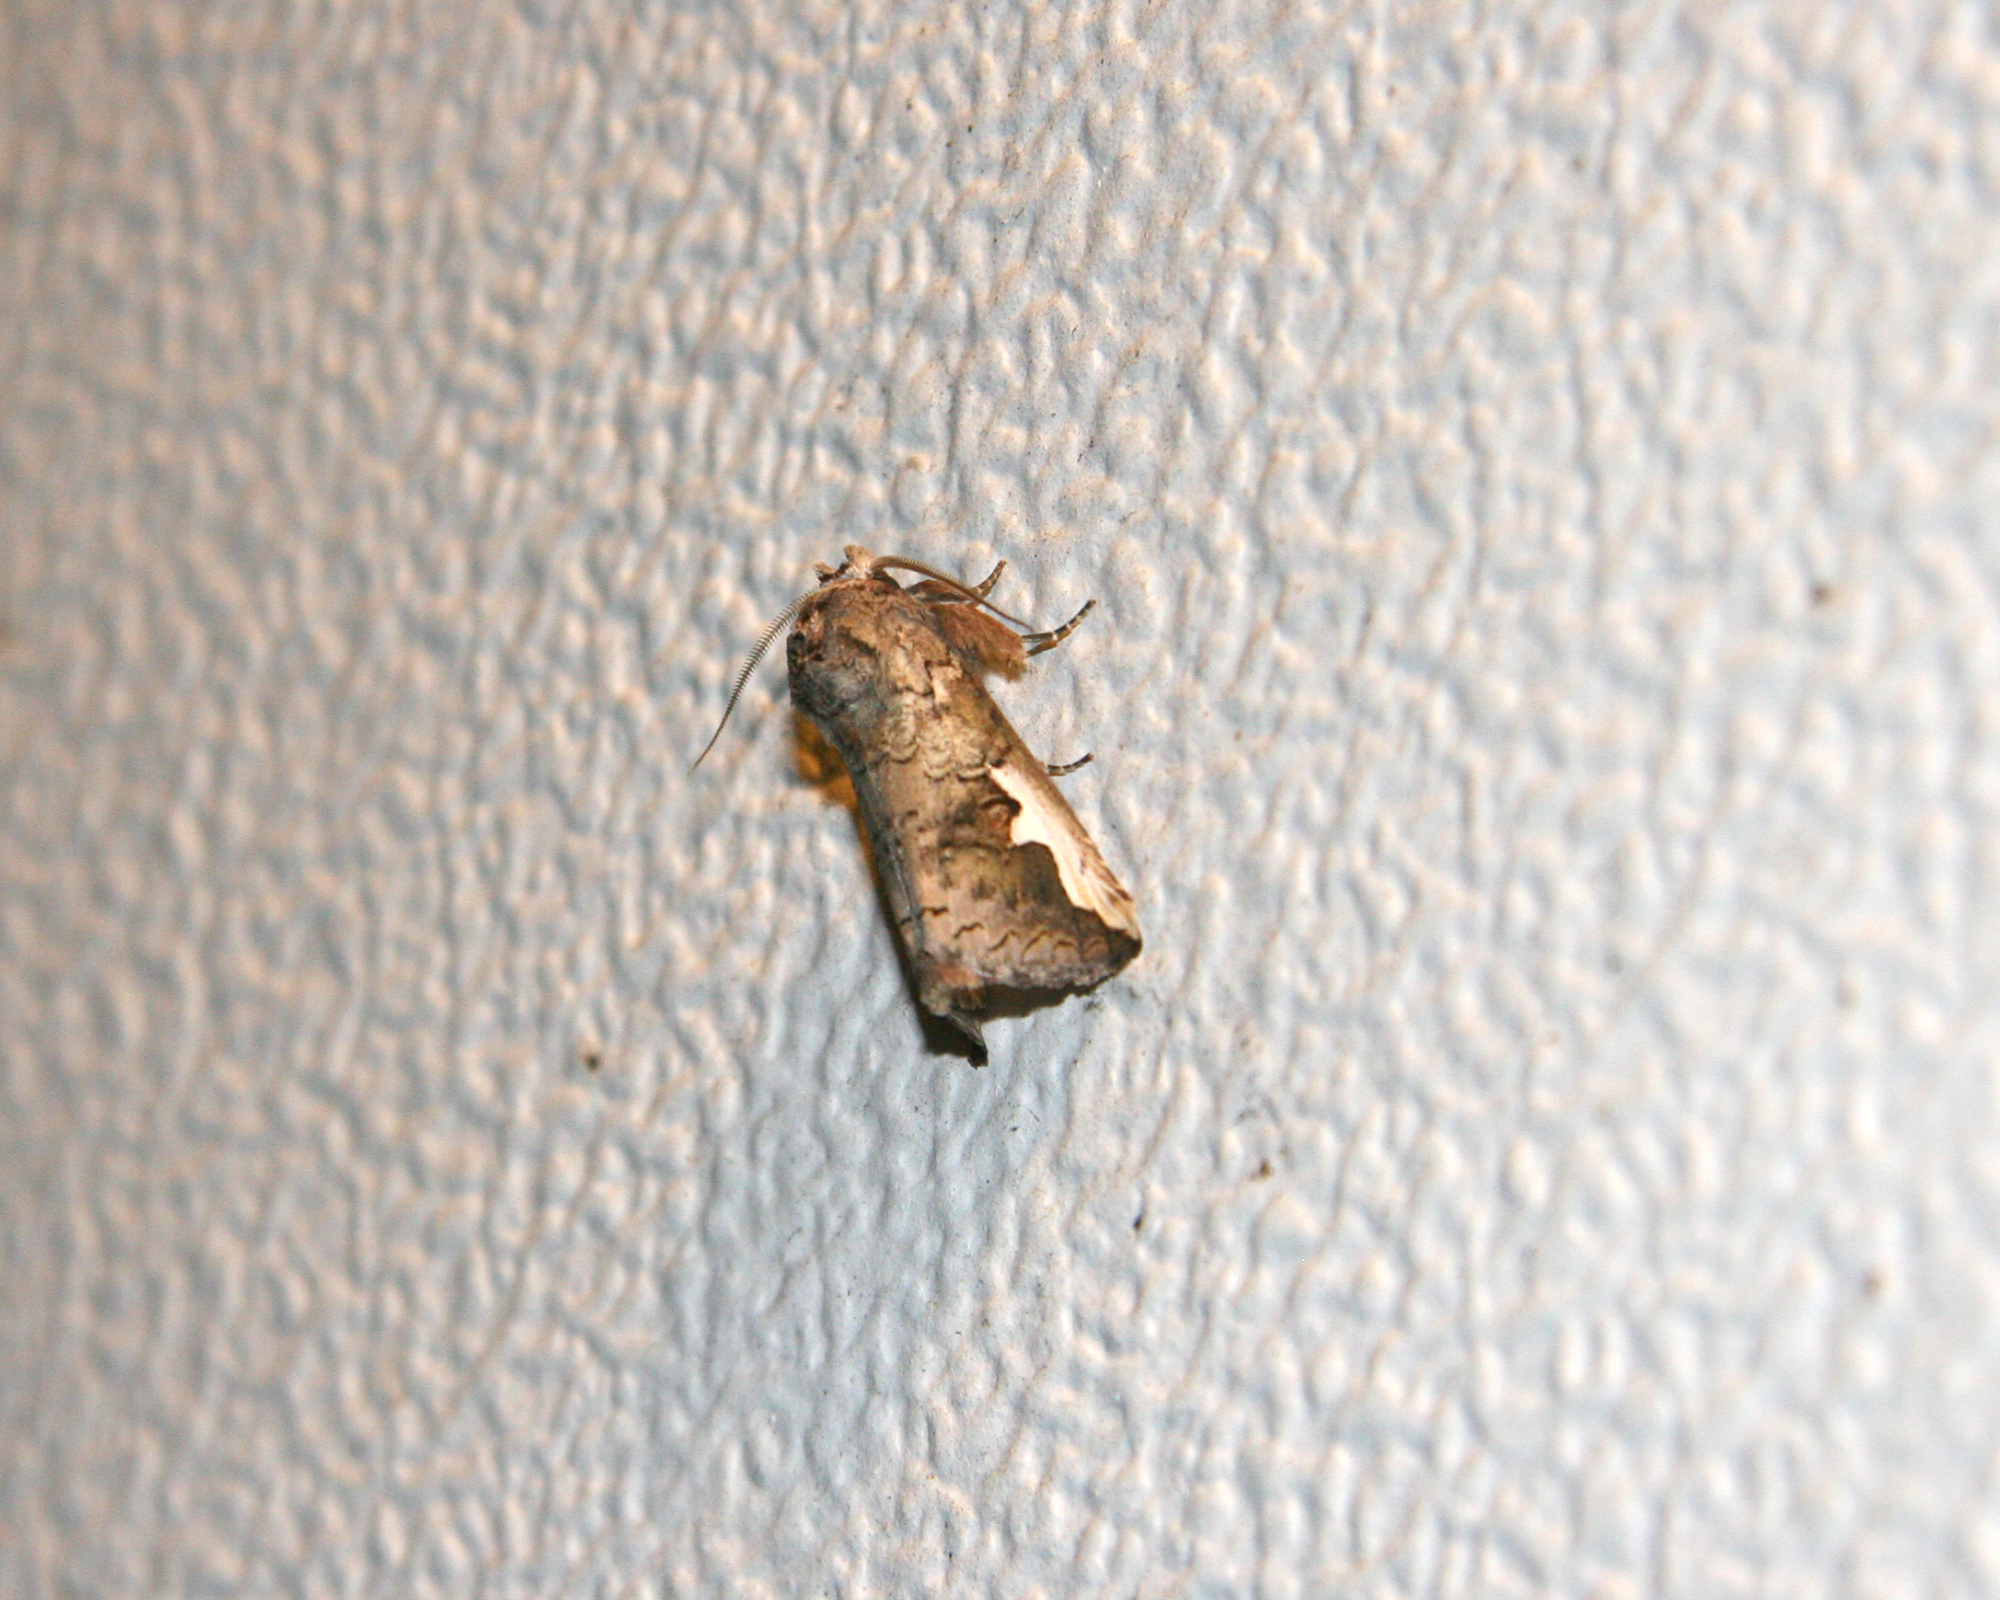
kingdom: Animalia
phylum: Arthropoda
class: Insecta
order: Lepidoptera
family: Notodontidae
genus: Symmerista
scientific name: Symmerista
